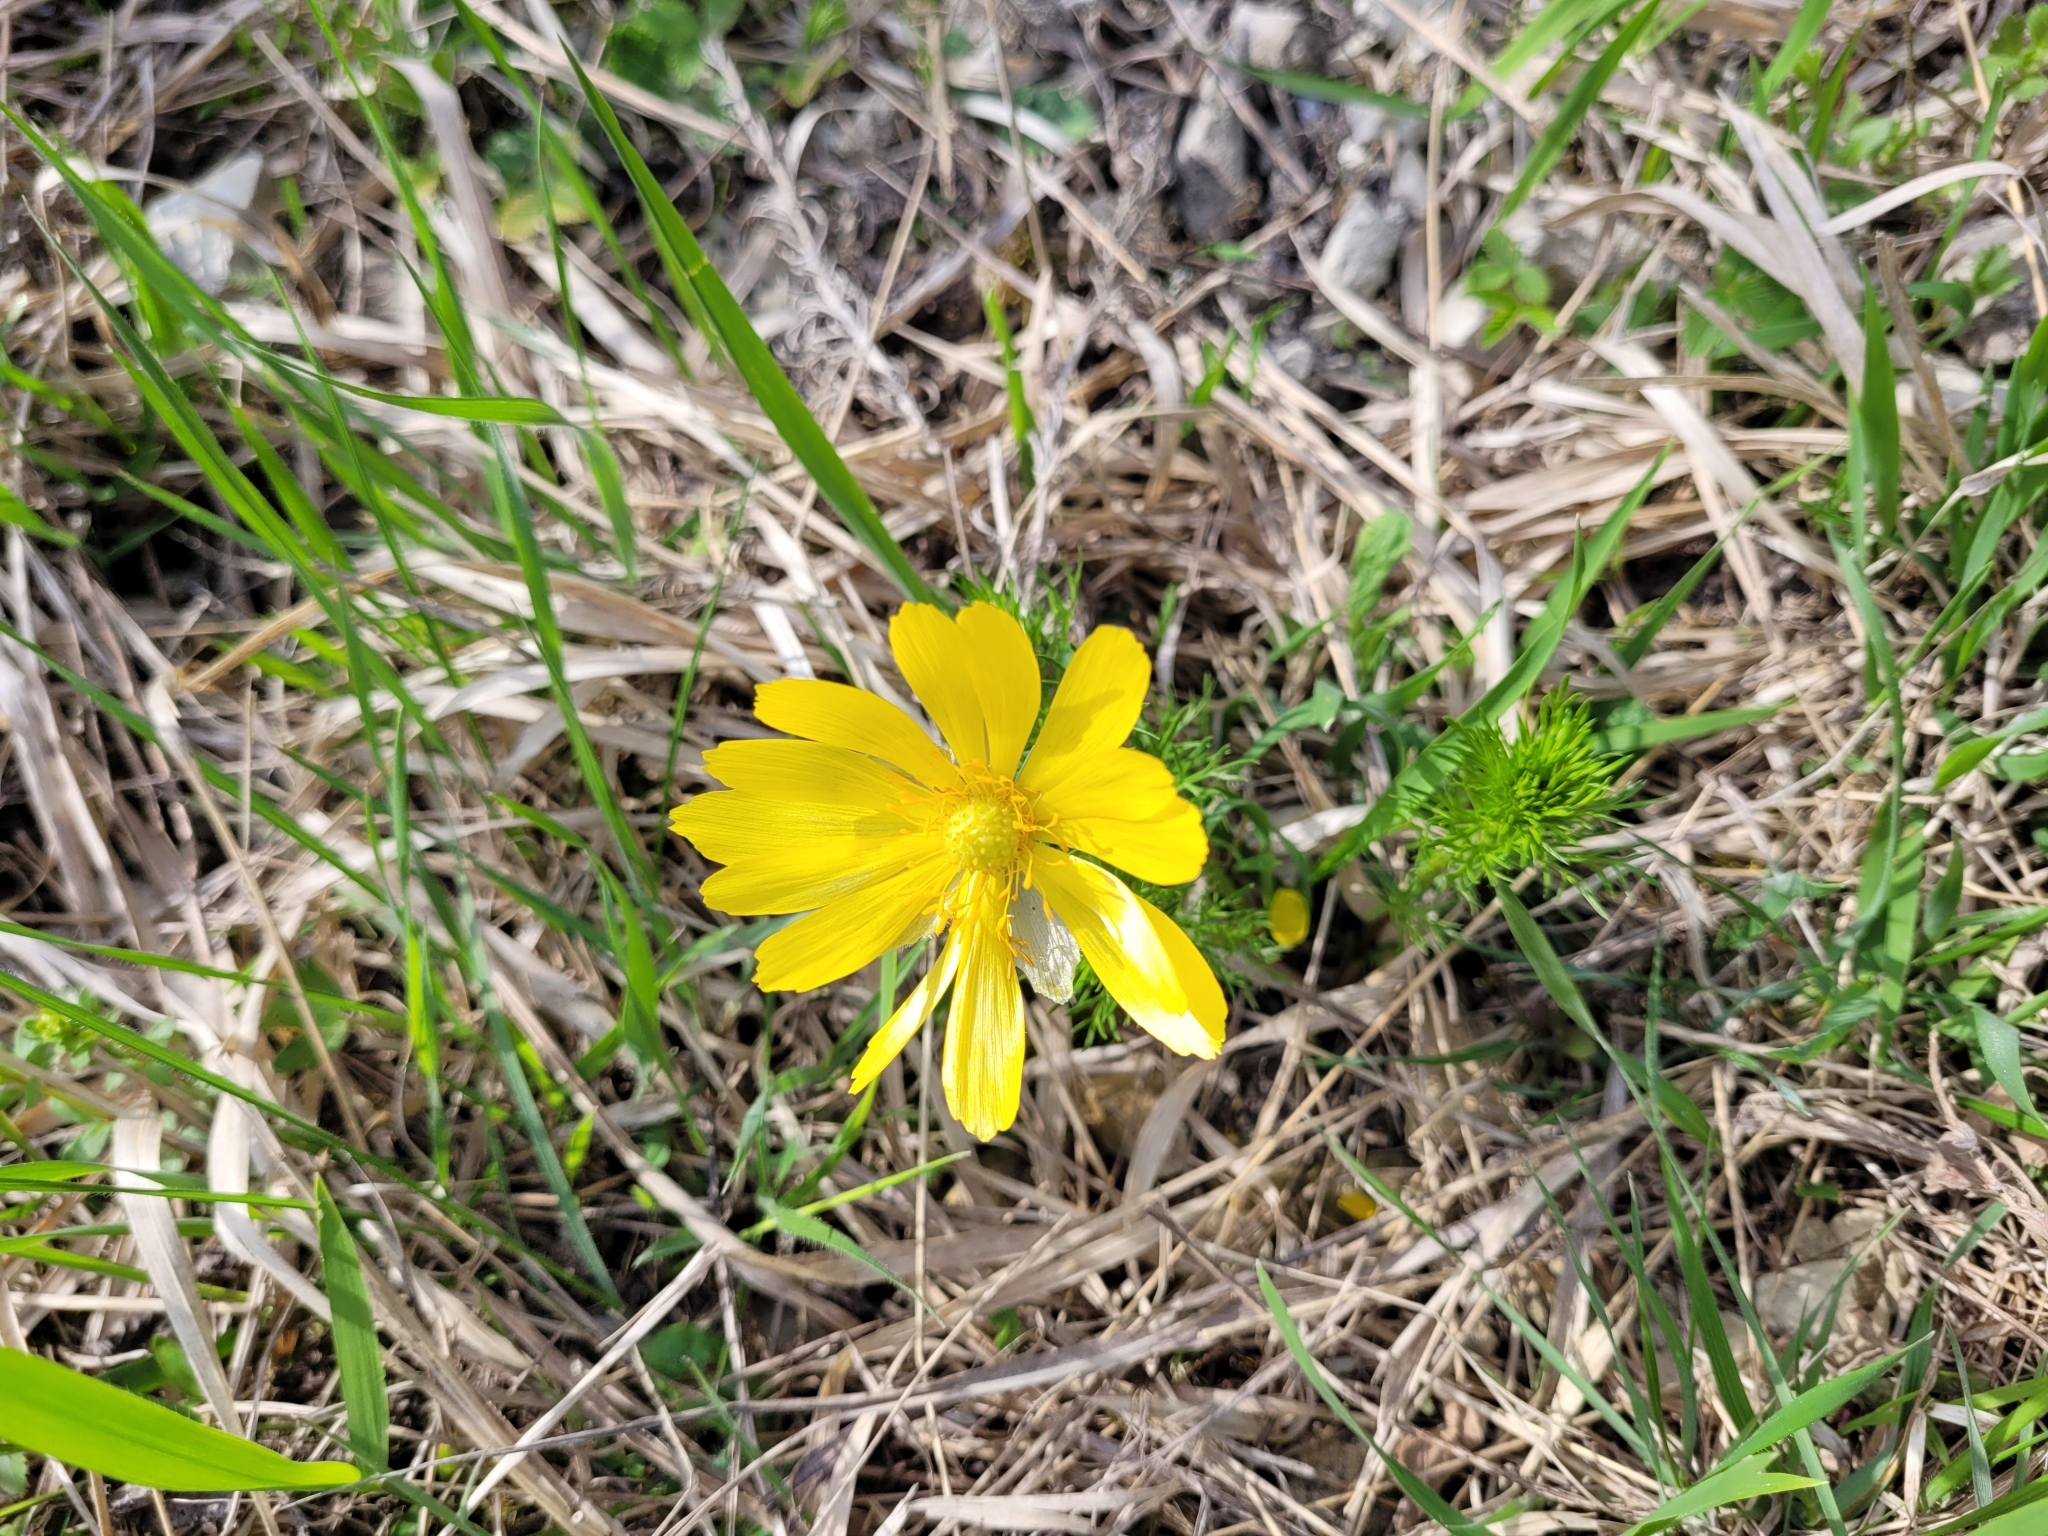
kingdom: Plantae
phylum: Tracheophyta
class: Magnoliopsida
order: Ranunculales
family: Ranunculaceae
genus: Adonis
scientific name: Adonis vernalis
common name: Yellow pheasants-eye
